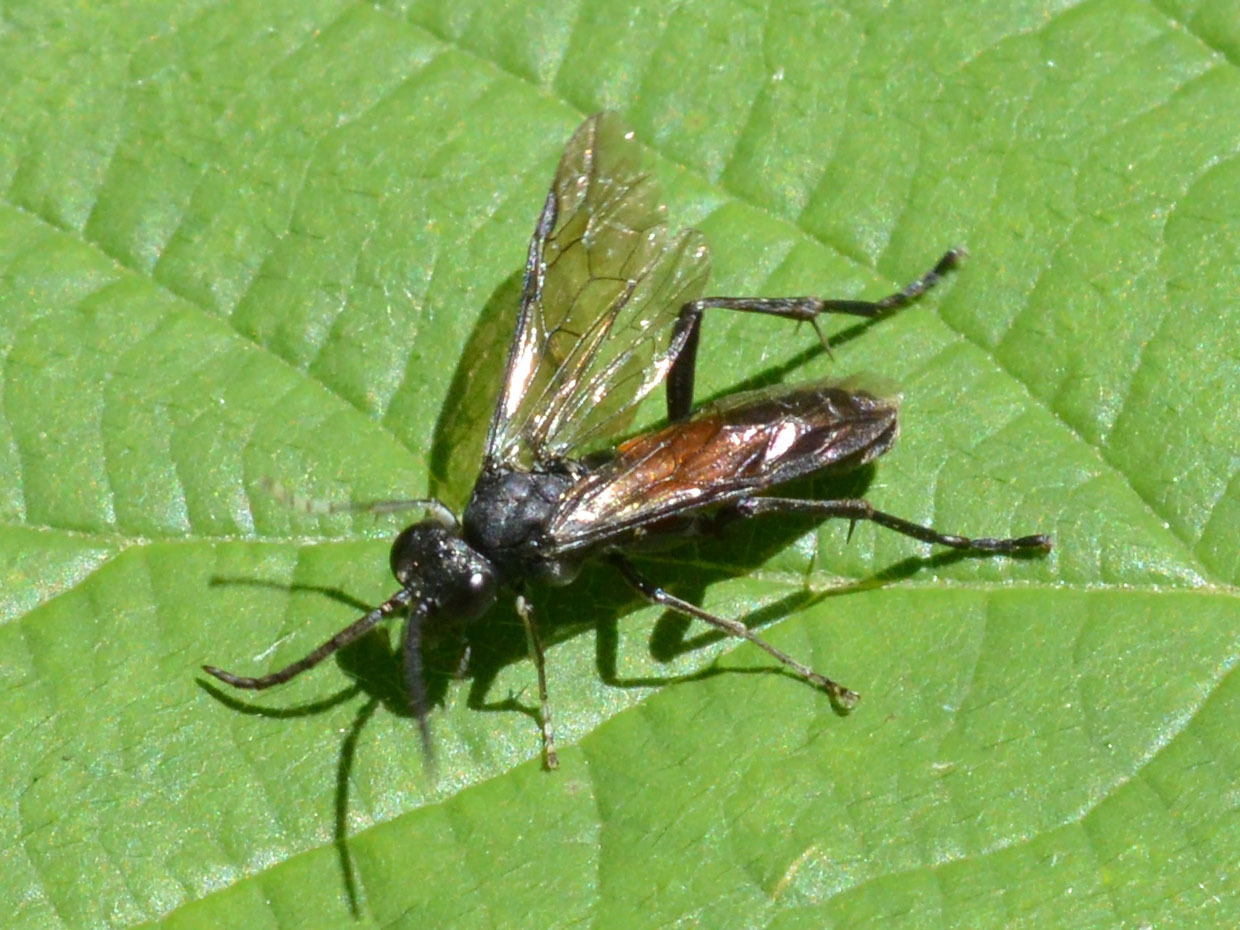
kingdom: Animalia
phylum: Arthropoda
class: Insecta
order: Hymenoptera
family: Tenthredinidae
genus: Macrophya
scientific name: Macrophya annulata
